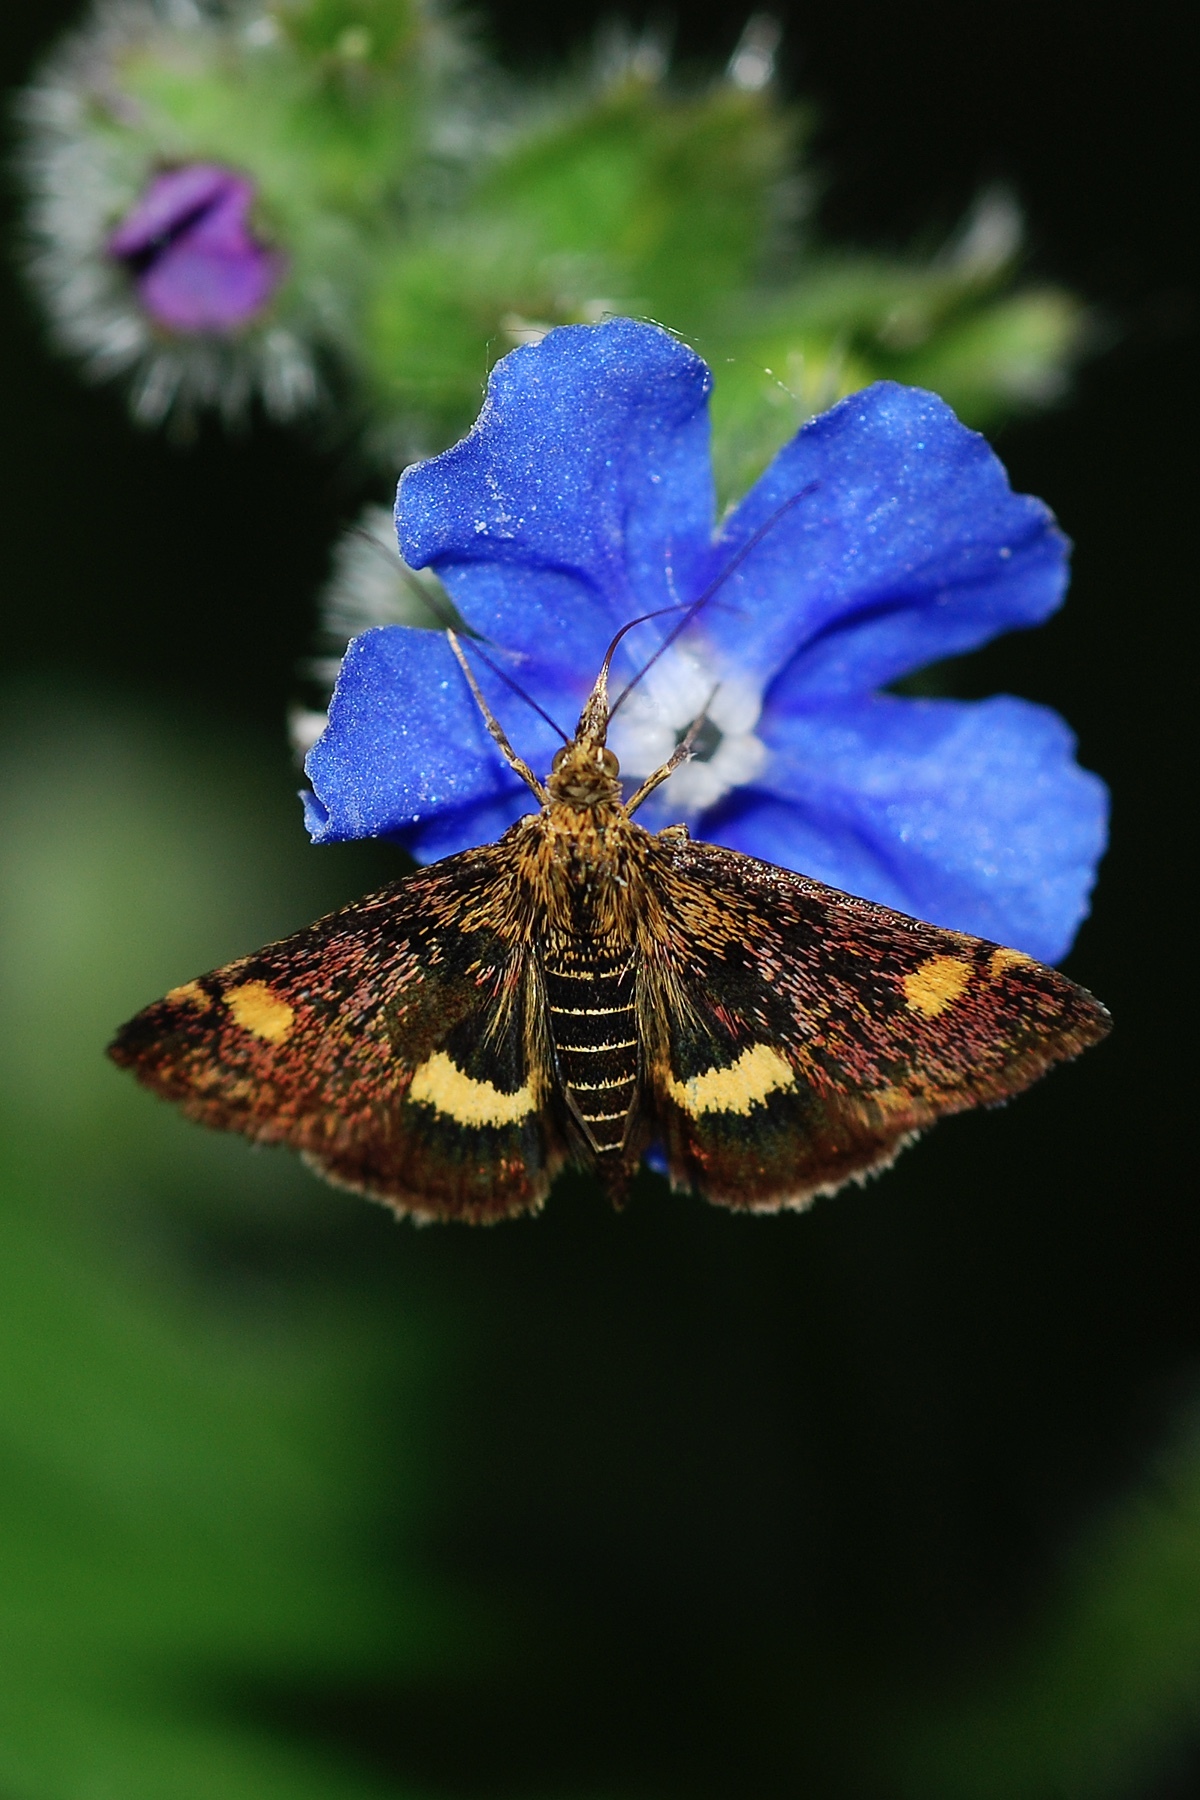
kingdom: Animalia
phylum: Arthropoda
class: Insecta
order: Lepidoptera
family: Crambidae
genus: Pyrausta
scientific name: Pyrausta aurata
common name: Small purple & gold
